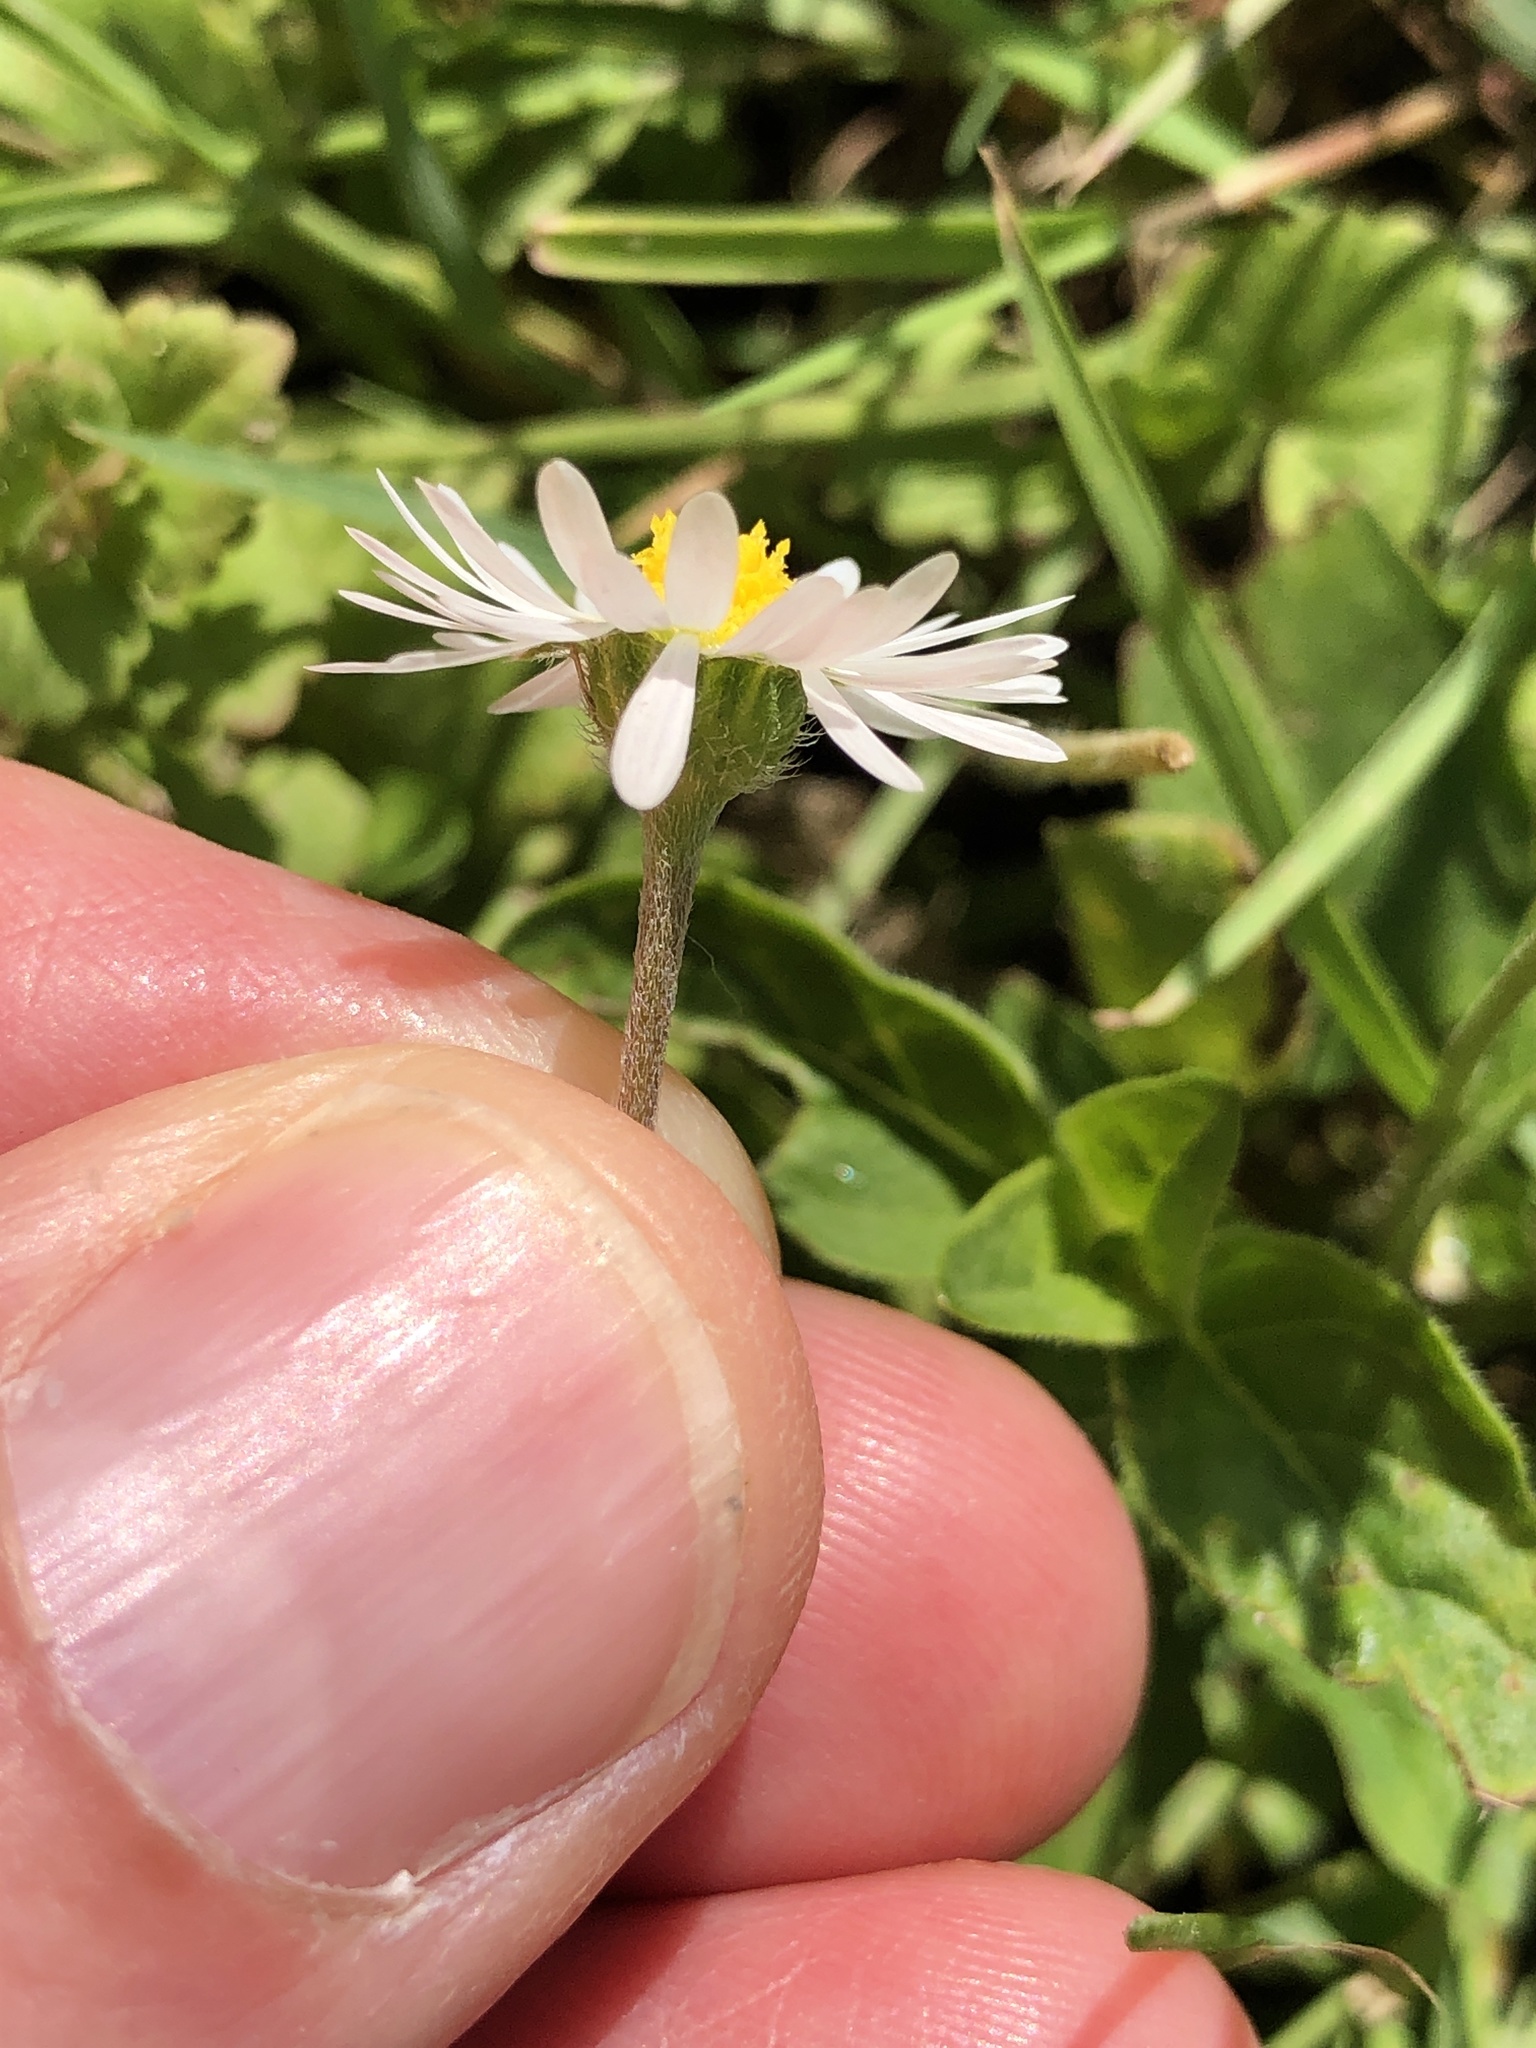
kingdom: Plantae
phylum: Tracheophyta
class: Magnoliopsida
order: Asterales
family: Asteraceae
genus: Bellis
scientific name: Bellis perennis
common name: Lawndaisy
